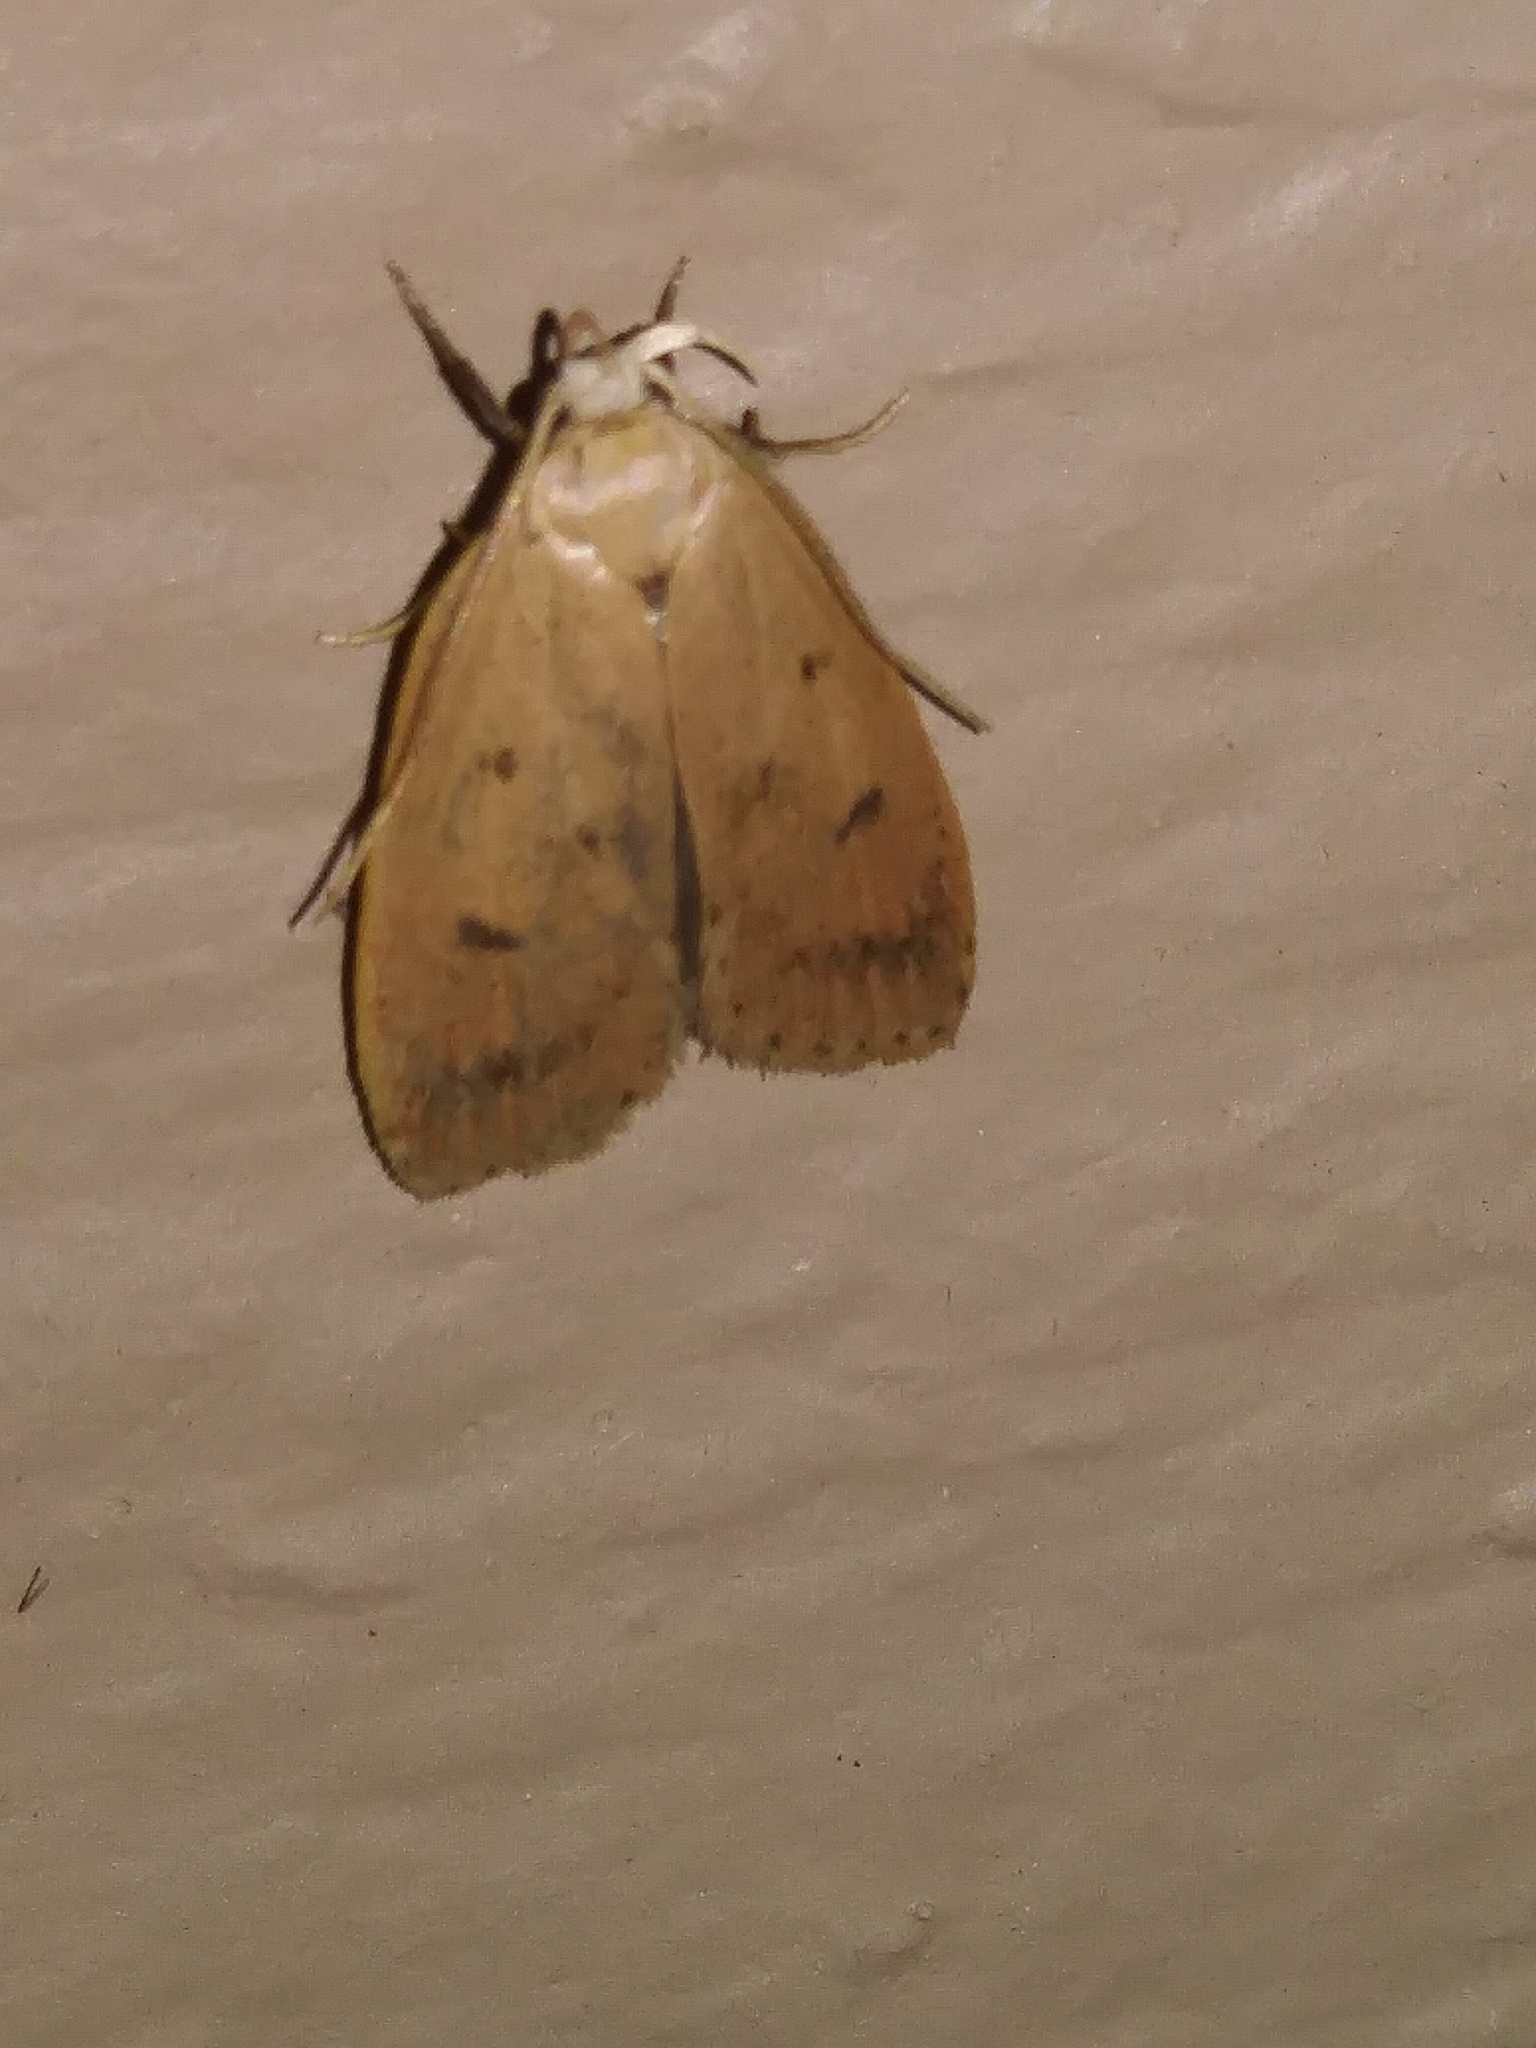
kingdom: Animalia
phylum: Arthropoda
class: Insecta
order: Lepidoptera
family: Peleopodidae
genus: Machimia
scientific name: Machimia tentoriferella
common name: Gold-striped leaftier moth
